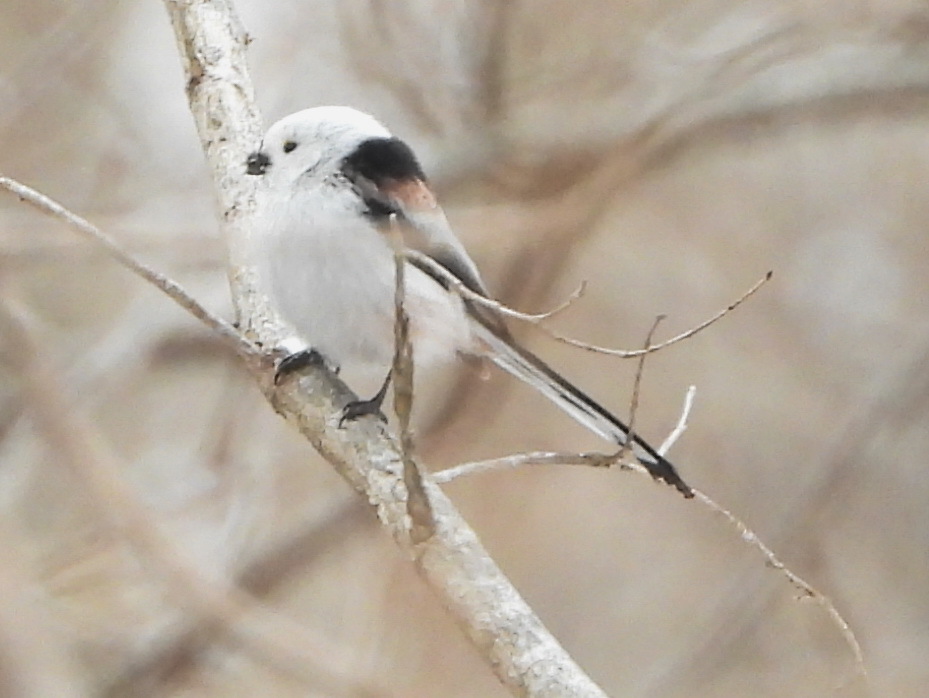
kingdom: Animalia
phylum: Chordata
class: Aves
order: Passeriformes
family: Aegithalidae
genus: Aegithalos
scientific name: Aegithalos caudatus
